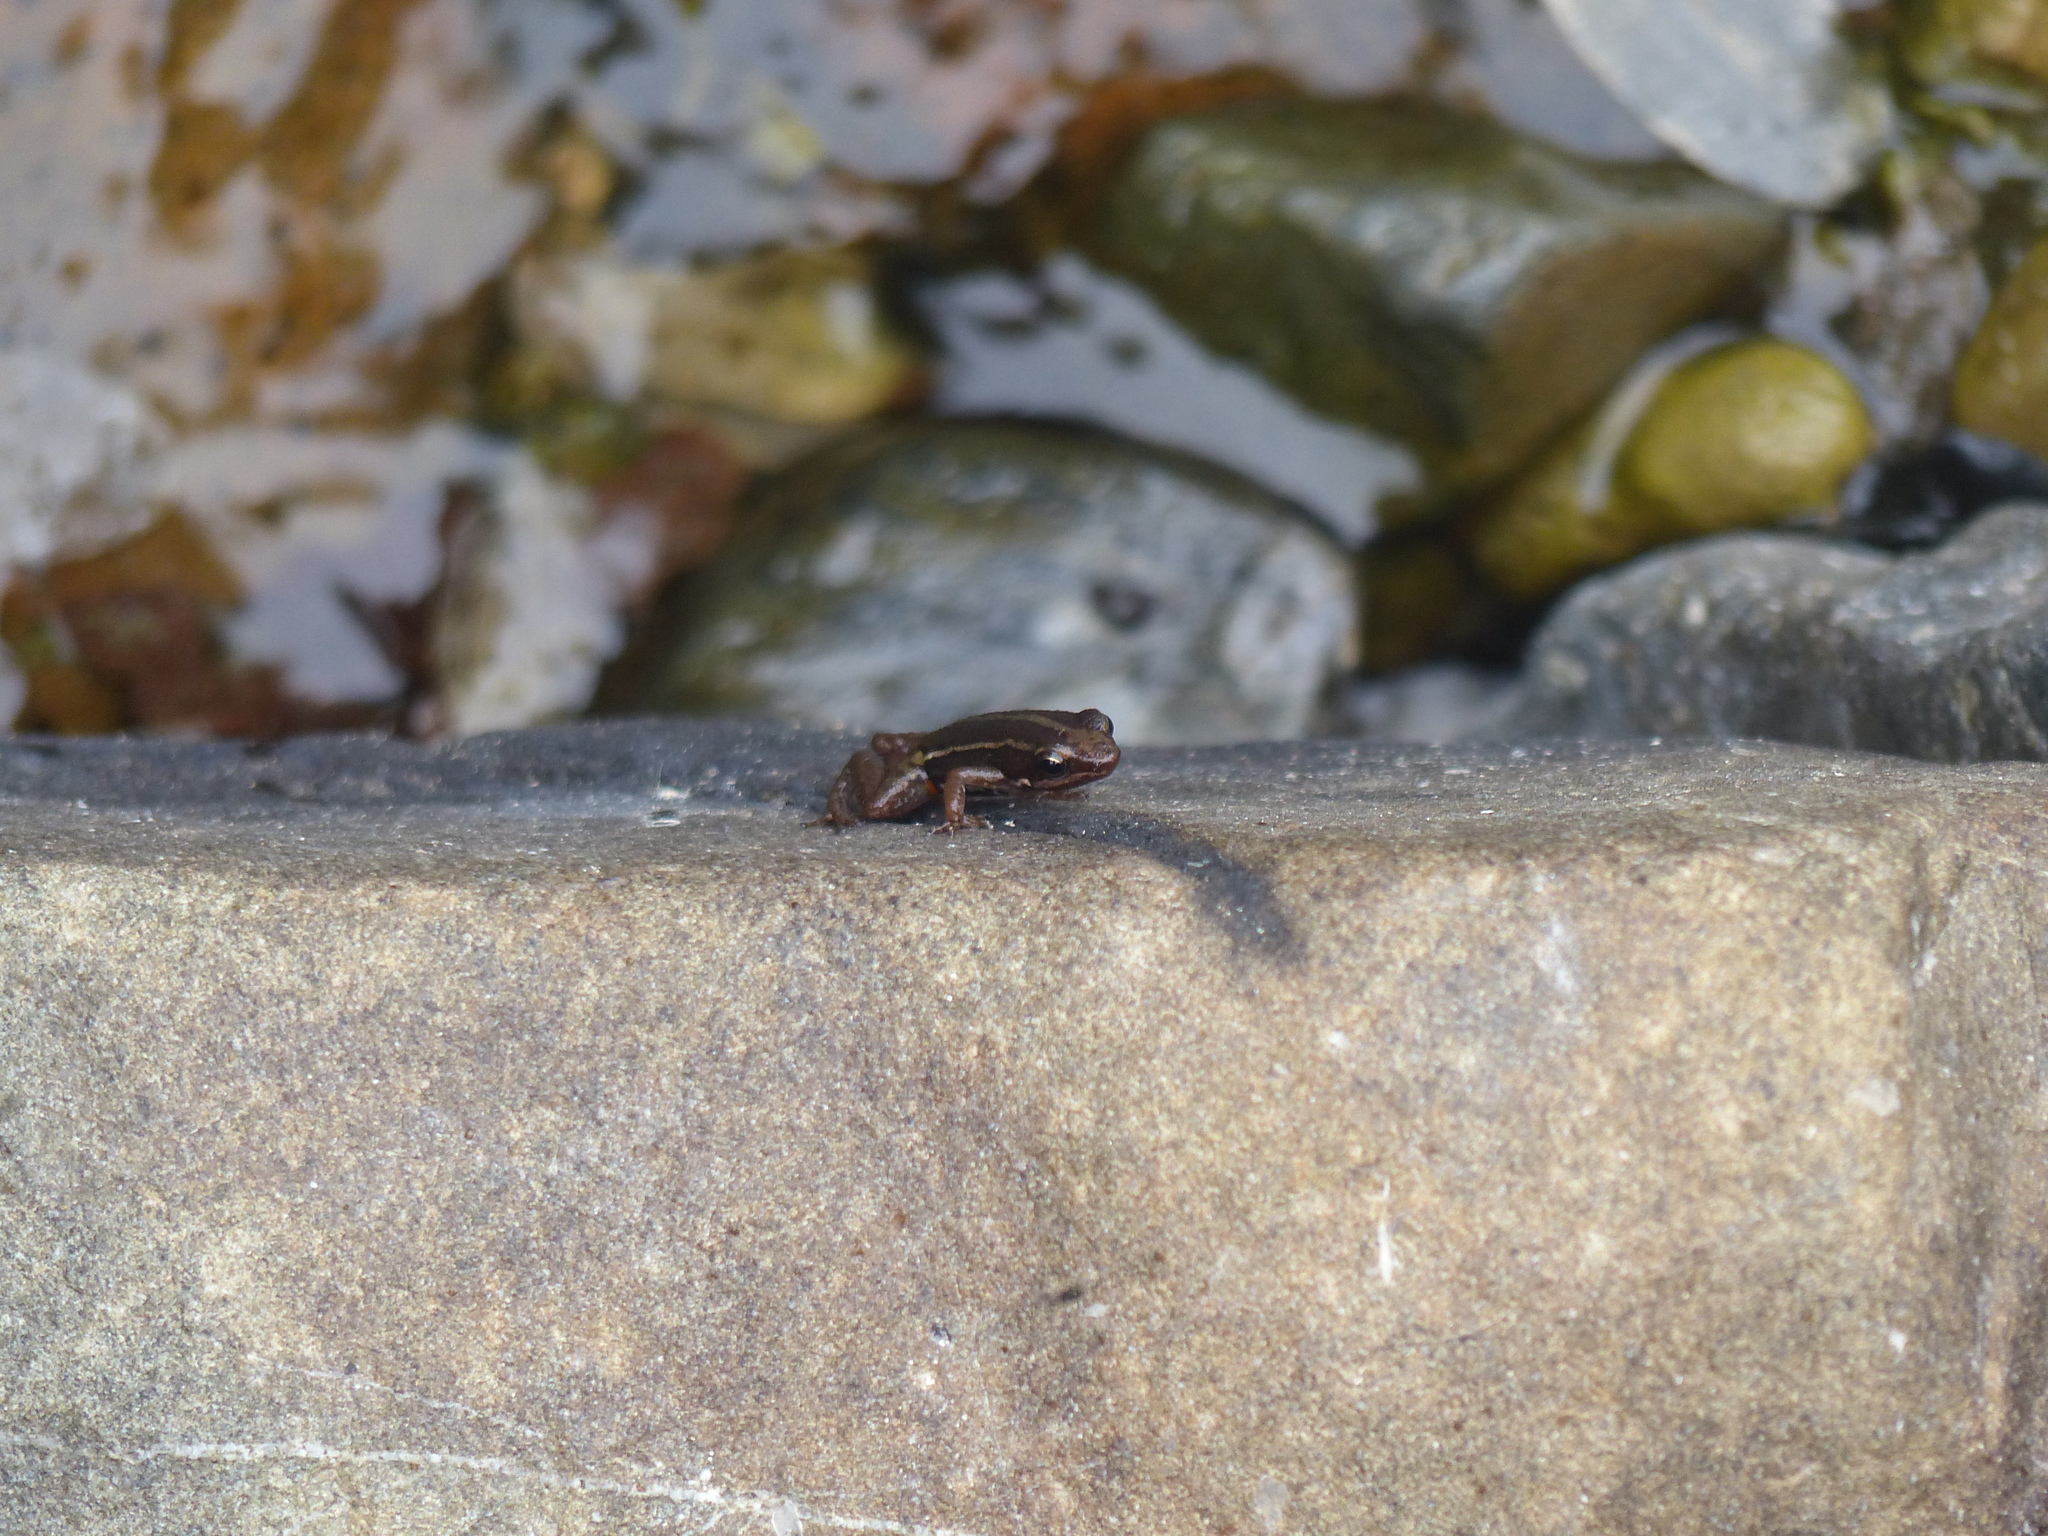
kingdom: Animalia
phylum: Chordata
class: Amphibia
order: Anura
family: Dendrobatidae
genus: Epipedobates
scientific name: Epipedobates anthonyi
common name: Anthony´s poison-arrow frog
